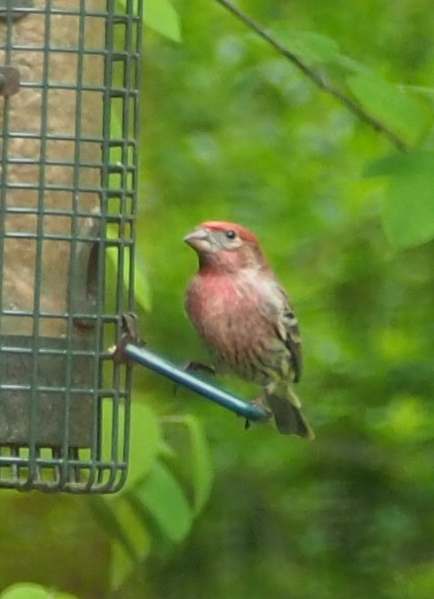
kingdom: Animalia
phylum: Chordata
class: Aves
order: Passeriformes
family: Fringillidae
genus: Haemorhous
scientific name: Haemorhous mexicanus
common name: House finch
